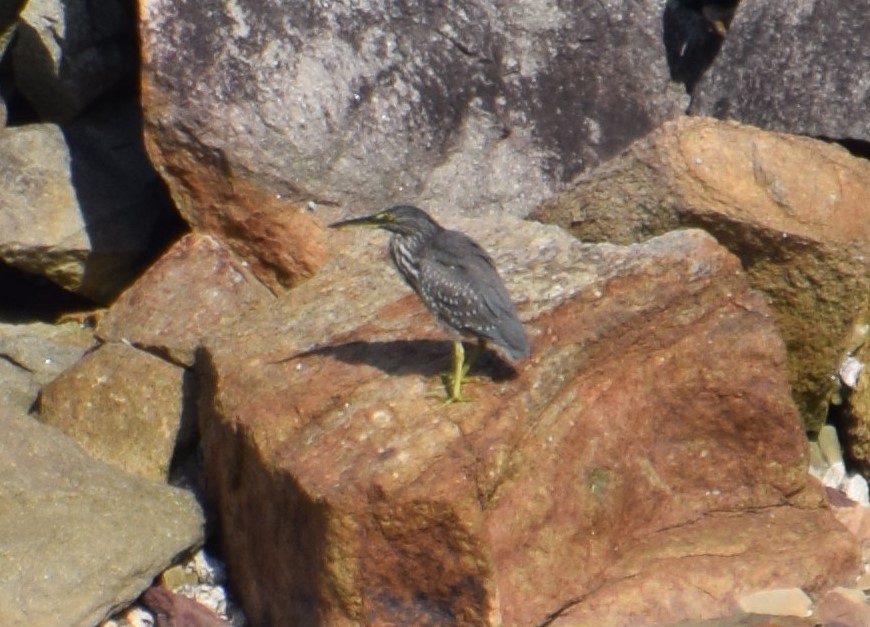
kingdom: Animalia
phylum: Chordata
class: Aves
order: Pelecaniformes
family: Ardeidae
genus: Butorides
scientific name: Butorides striata
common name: Striated heron
